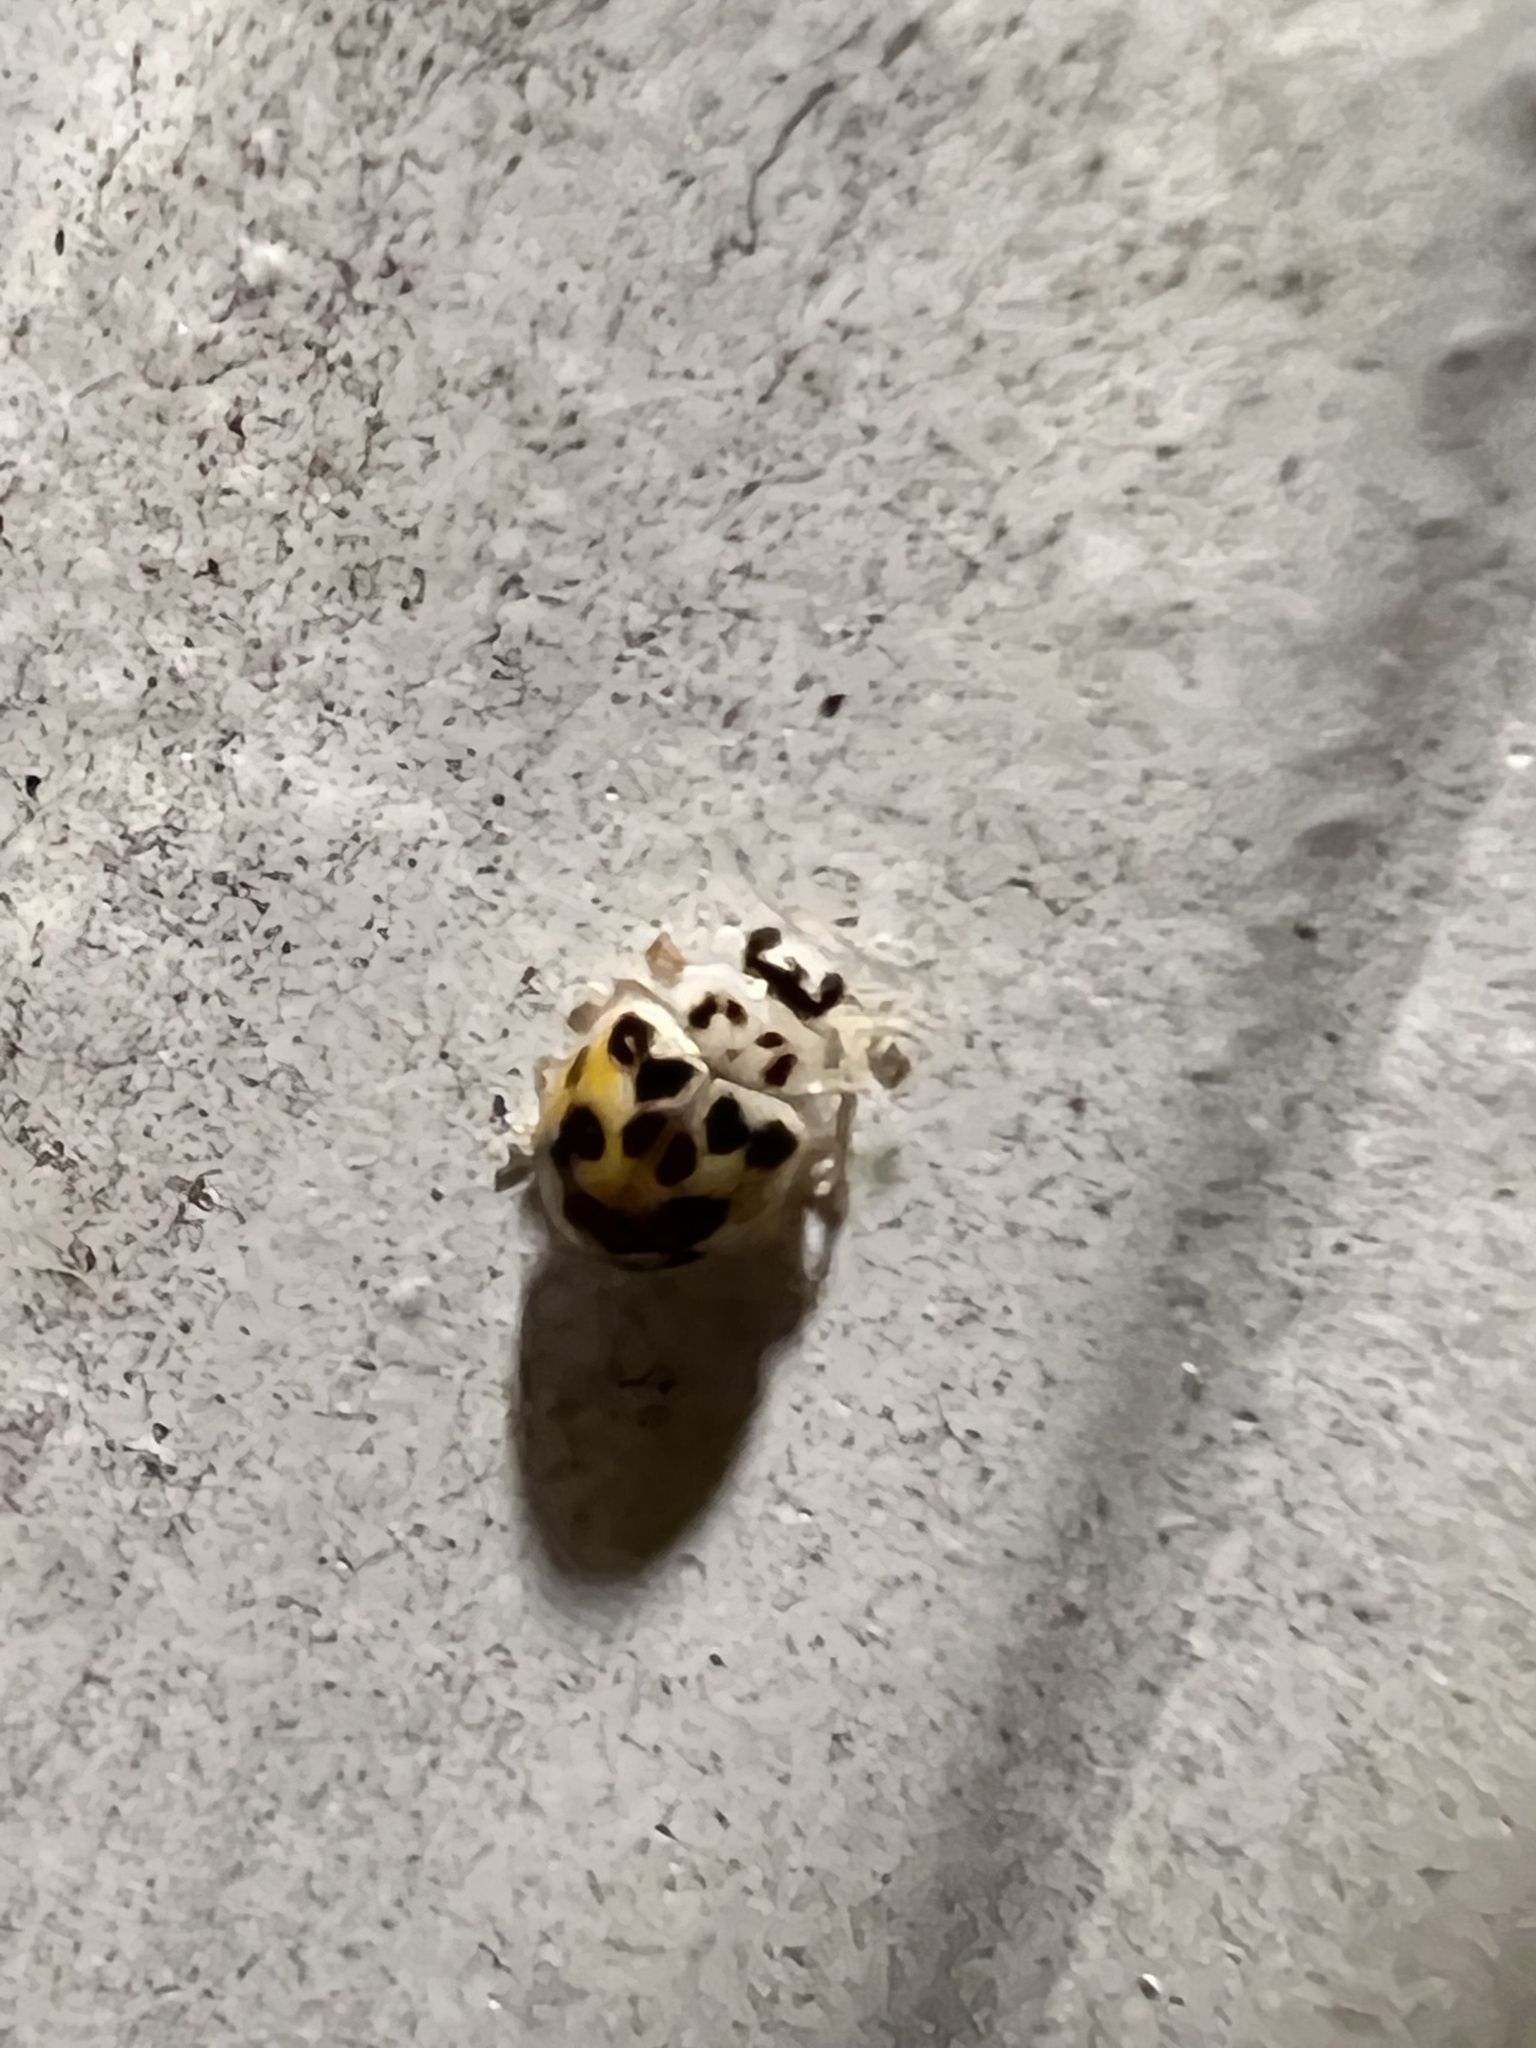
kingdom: Animalia
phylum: Arthropoda
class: Insecta
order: Coleoptera
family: Coccinellidae
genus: Psyllobora
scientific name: Psyllobora vigintimaculata
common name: Ladybird beetle
